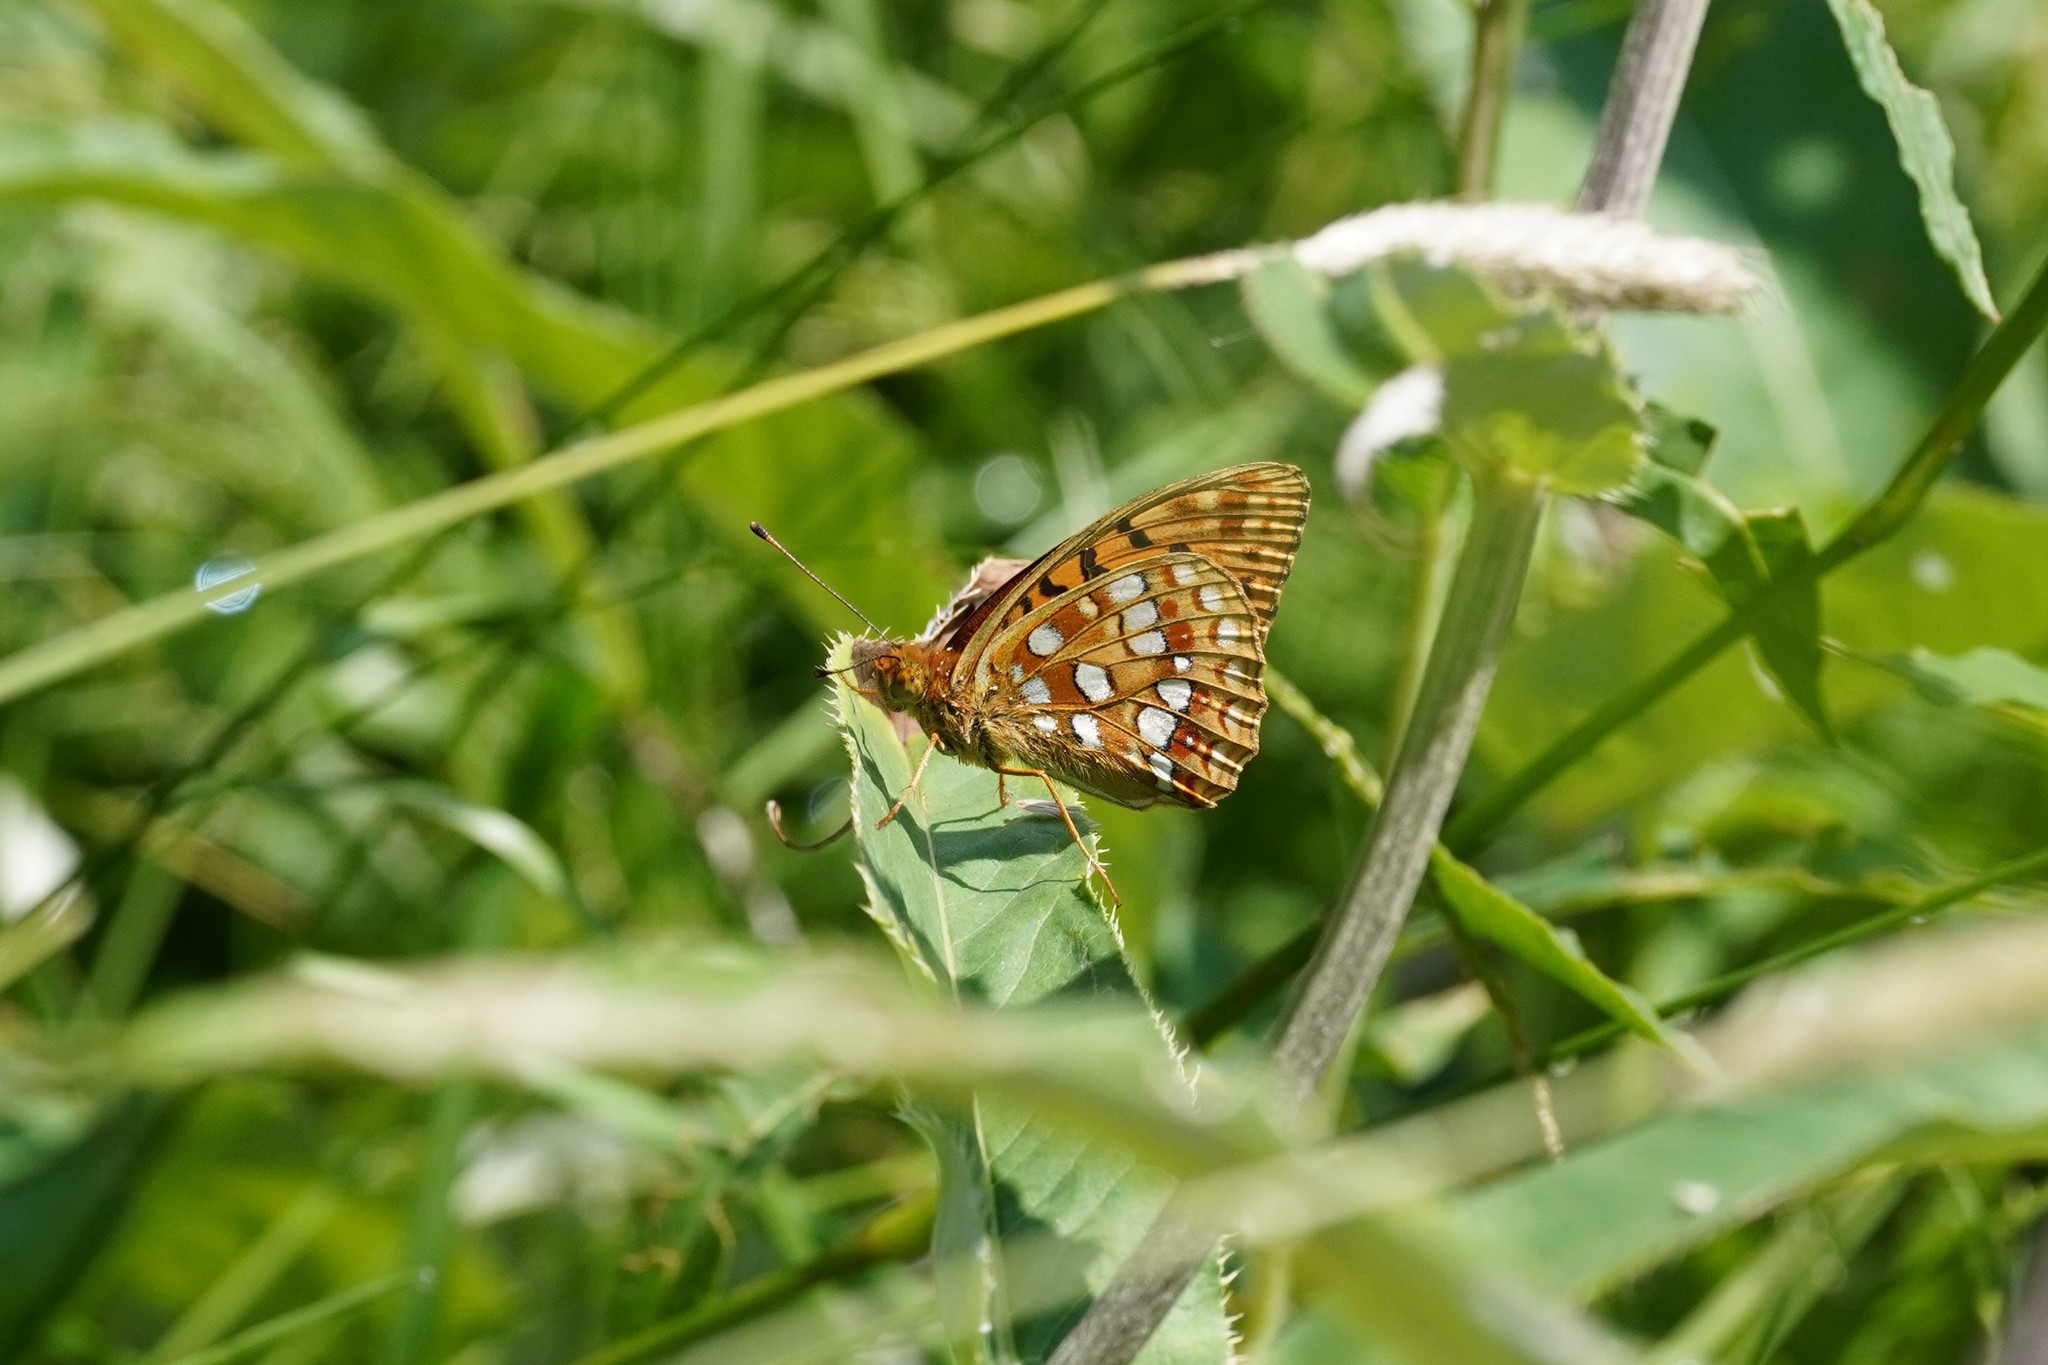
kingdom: Animalia
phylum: Arthropoda
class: Insecta
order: Lepidoptera
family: Nymphalidae
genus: Fabriciana
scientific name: Fabriciana adippe
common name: High brown fritillary
